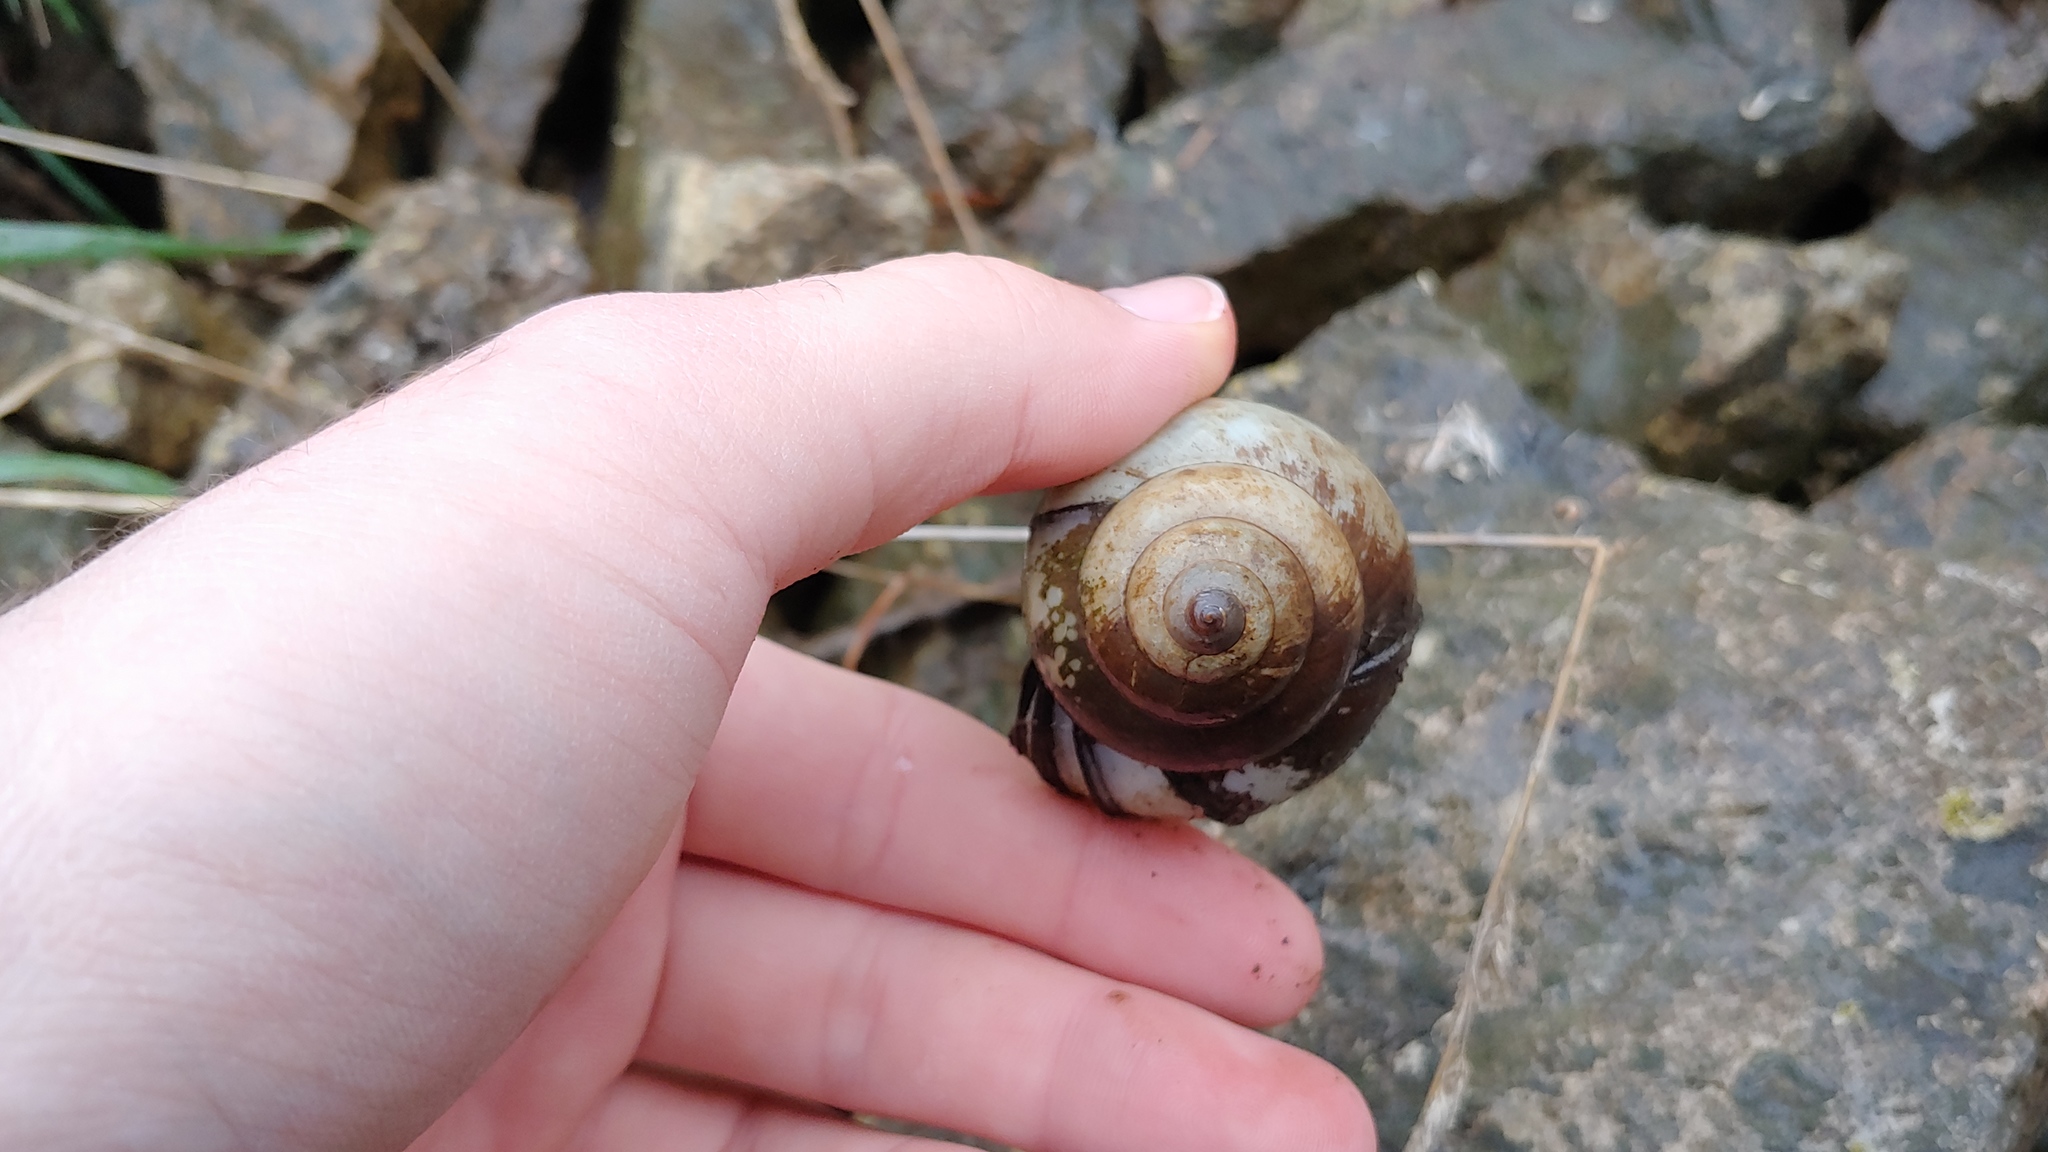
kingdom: Animalia
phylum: Mollusca
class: Gastropoda
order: Architaenioglossa
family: Viviparidae
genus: Cipangopaludina
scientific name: Cipangopaludina chinensis
